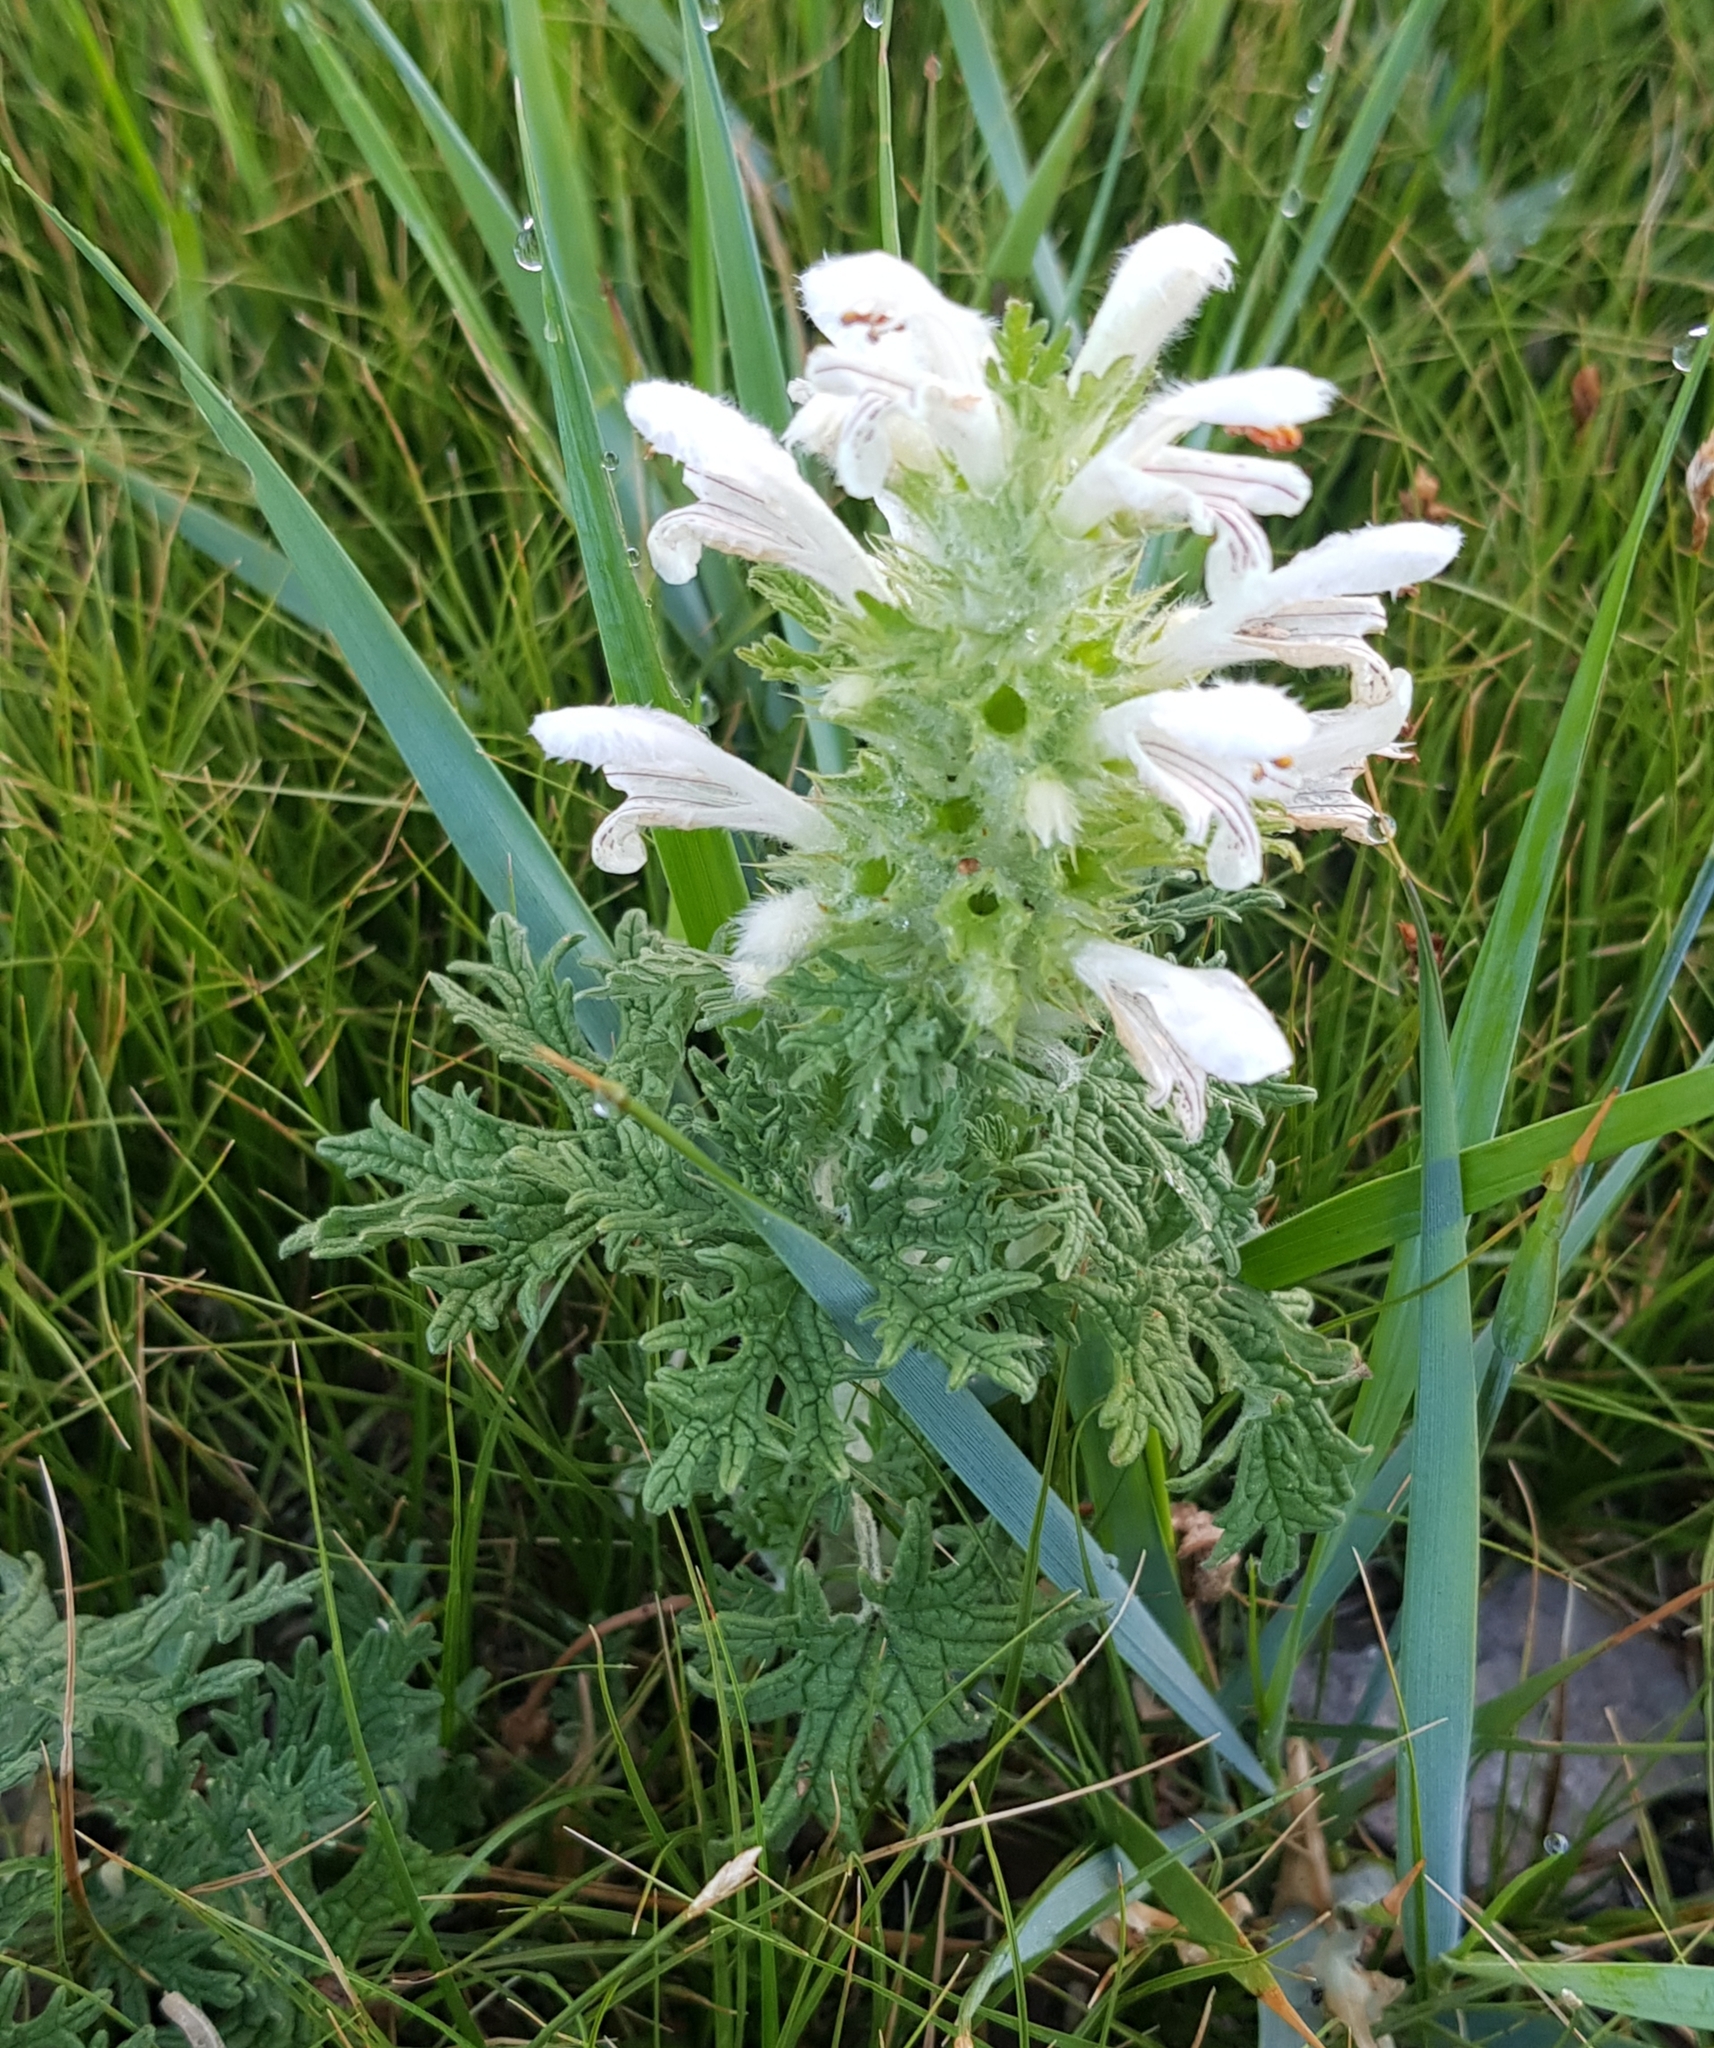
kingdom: Plantae
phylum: Tracheophyta
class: Magnoliopsida
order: Lamiales
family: Lamiaceae
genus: Panzerina
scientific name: Panzerina lanata
